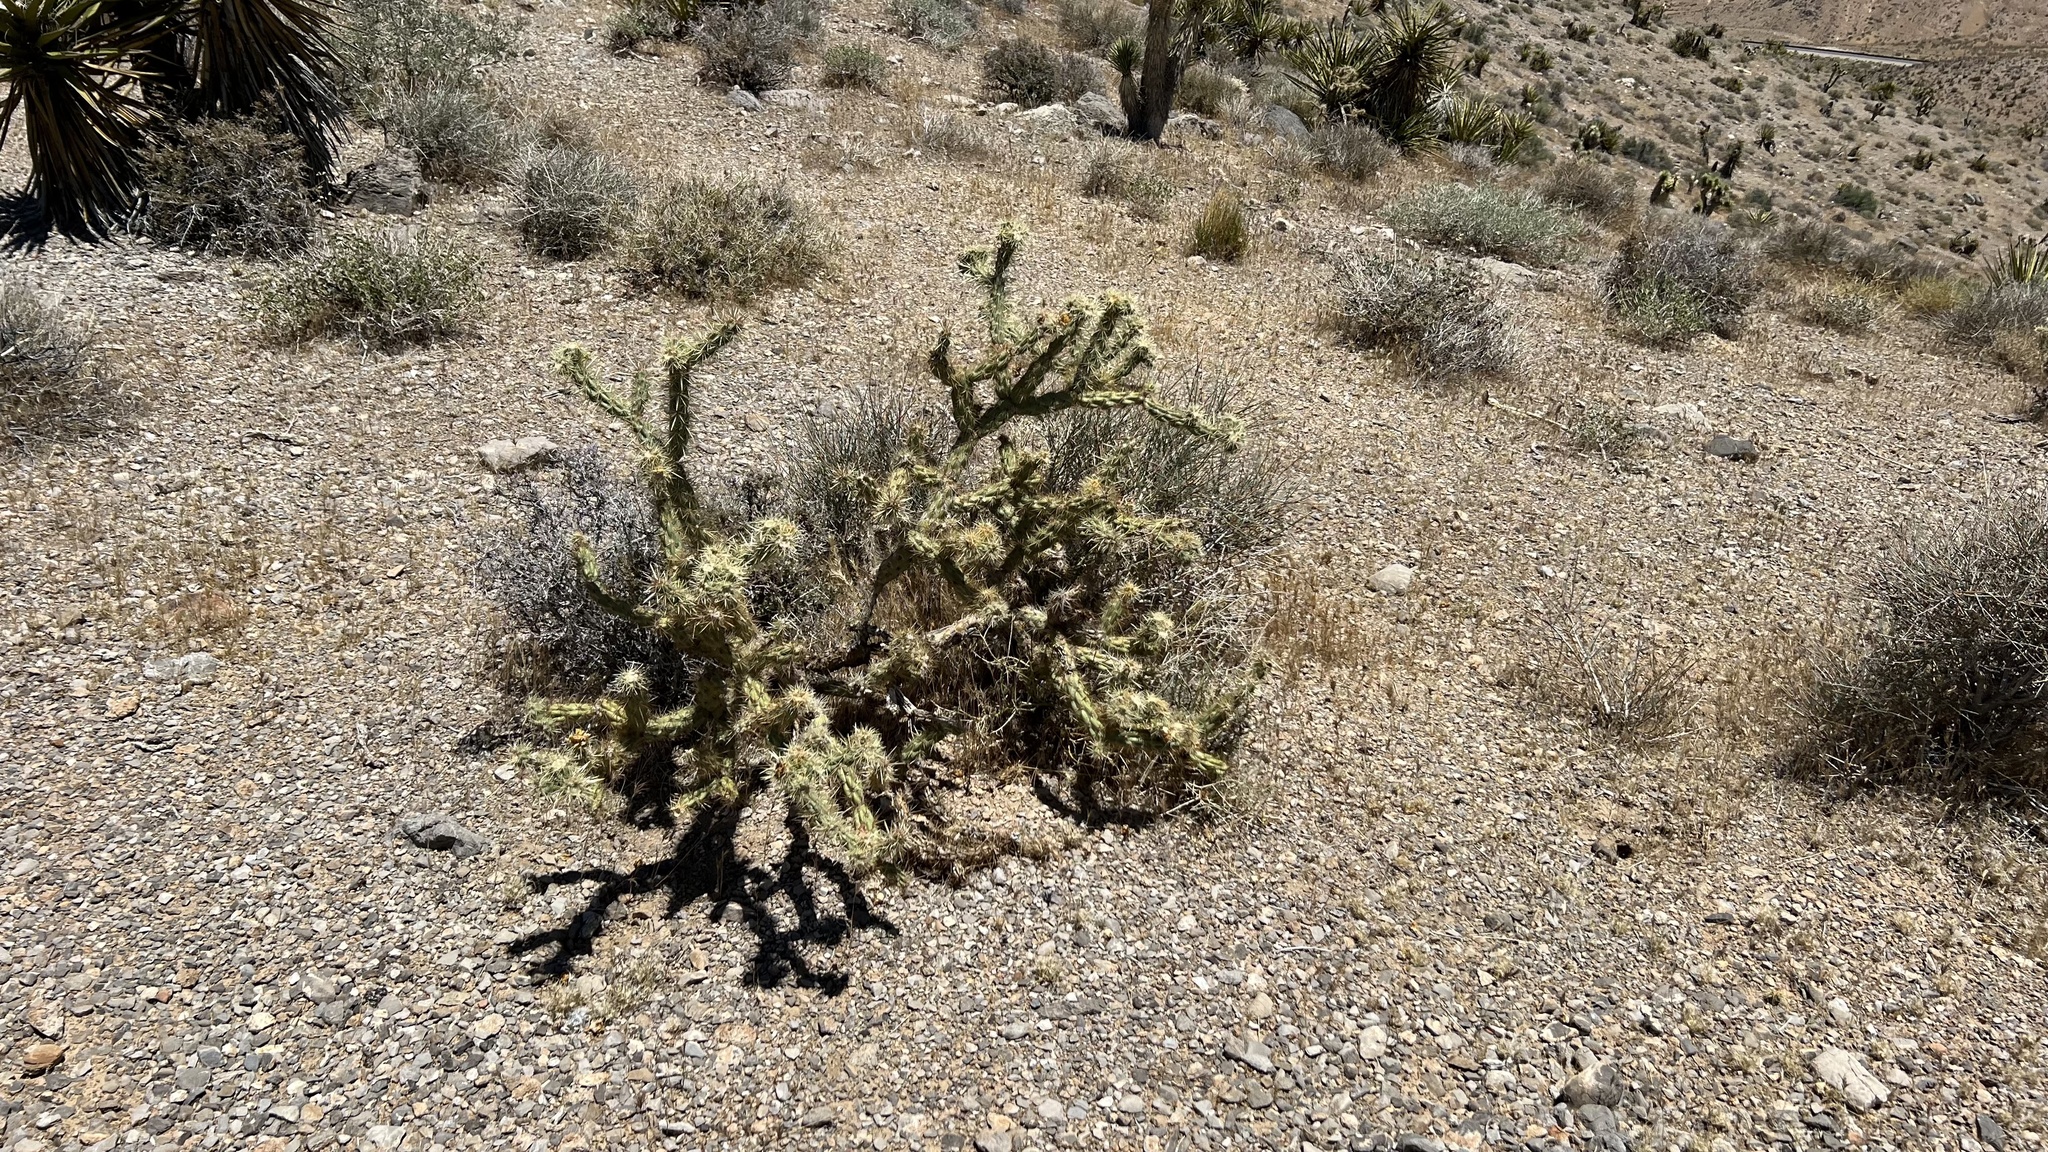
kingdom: Plantae
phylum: Tracheophyta
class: Magnoliopsida
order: Caryophyllales
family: Cactaceae
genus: Cylindropuntia
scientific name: Cylindropuntia acanthocarpa
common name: Buckhorn cholla
